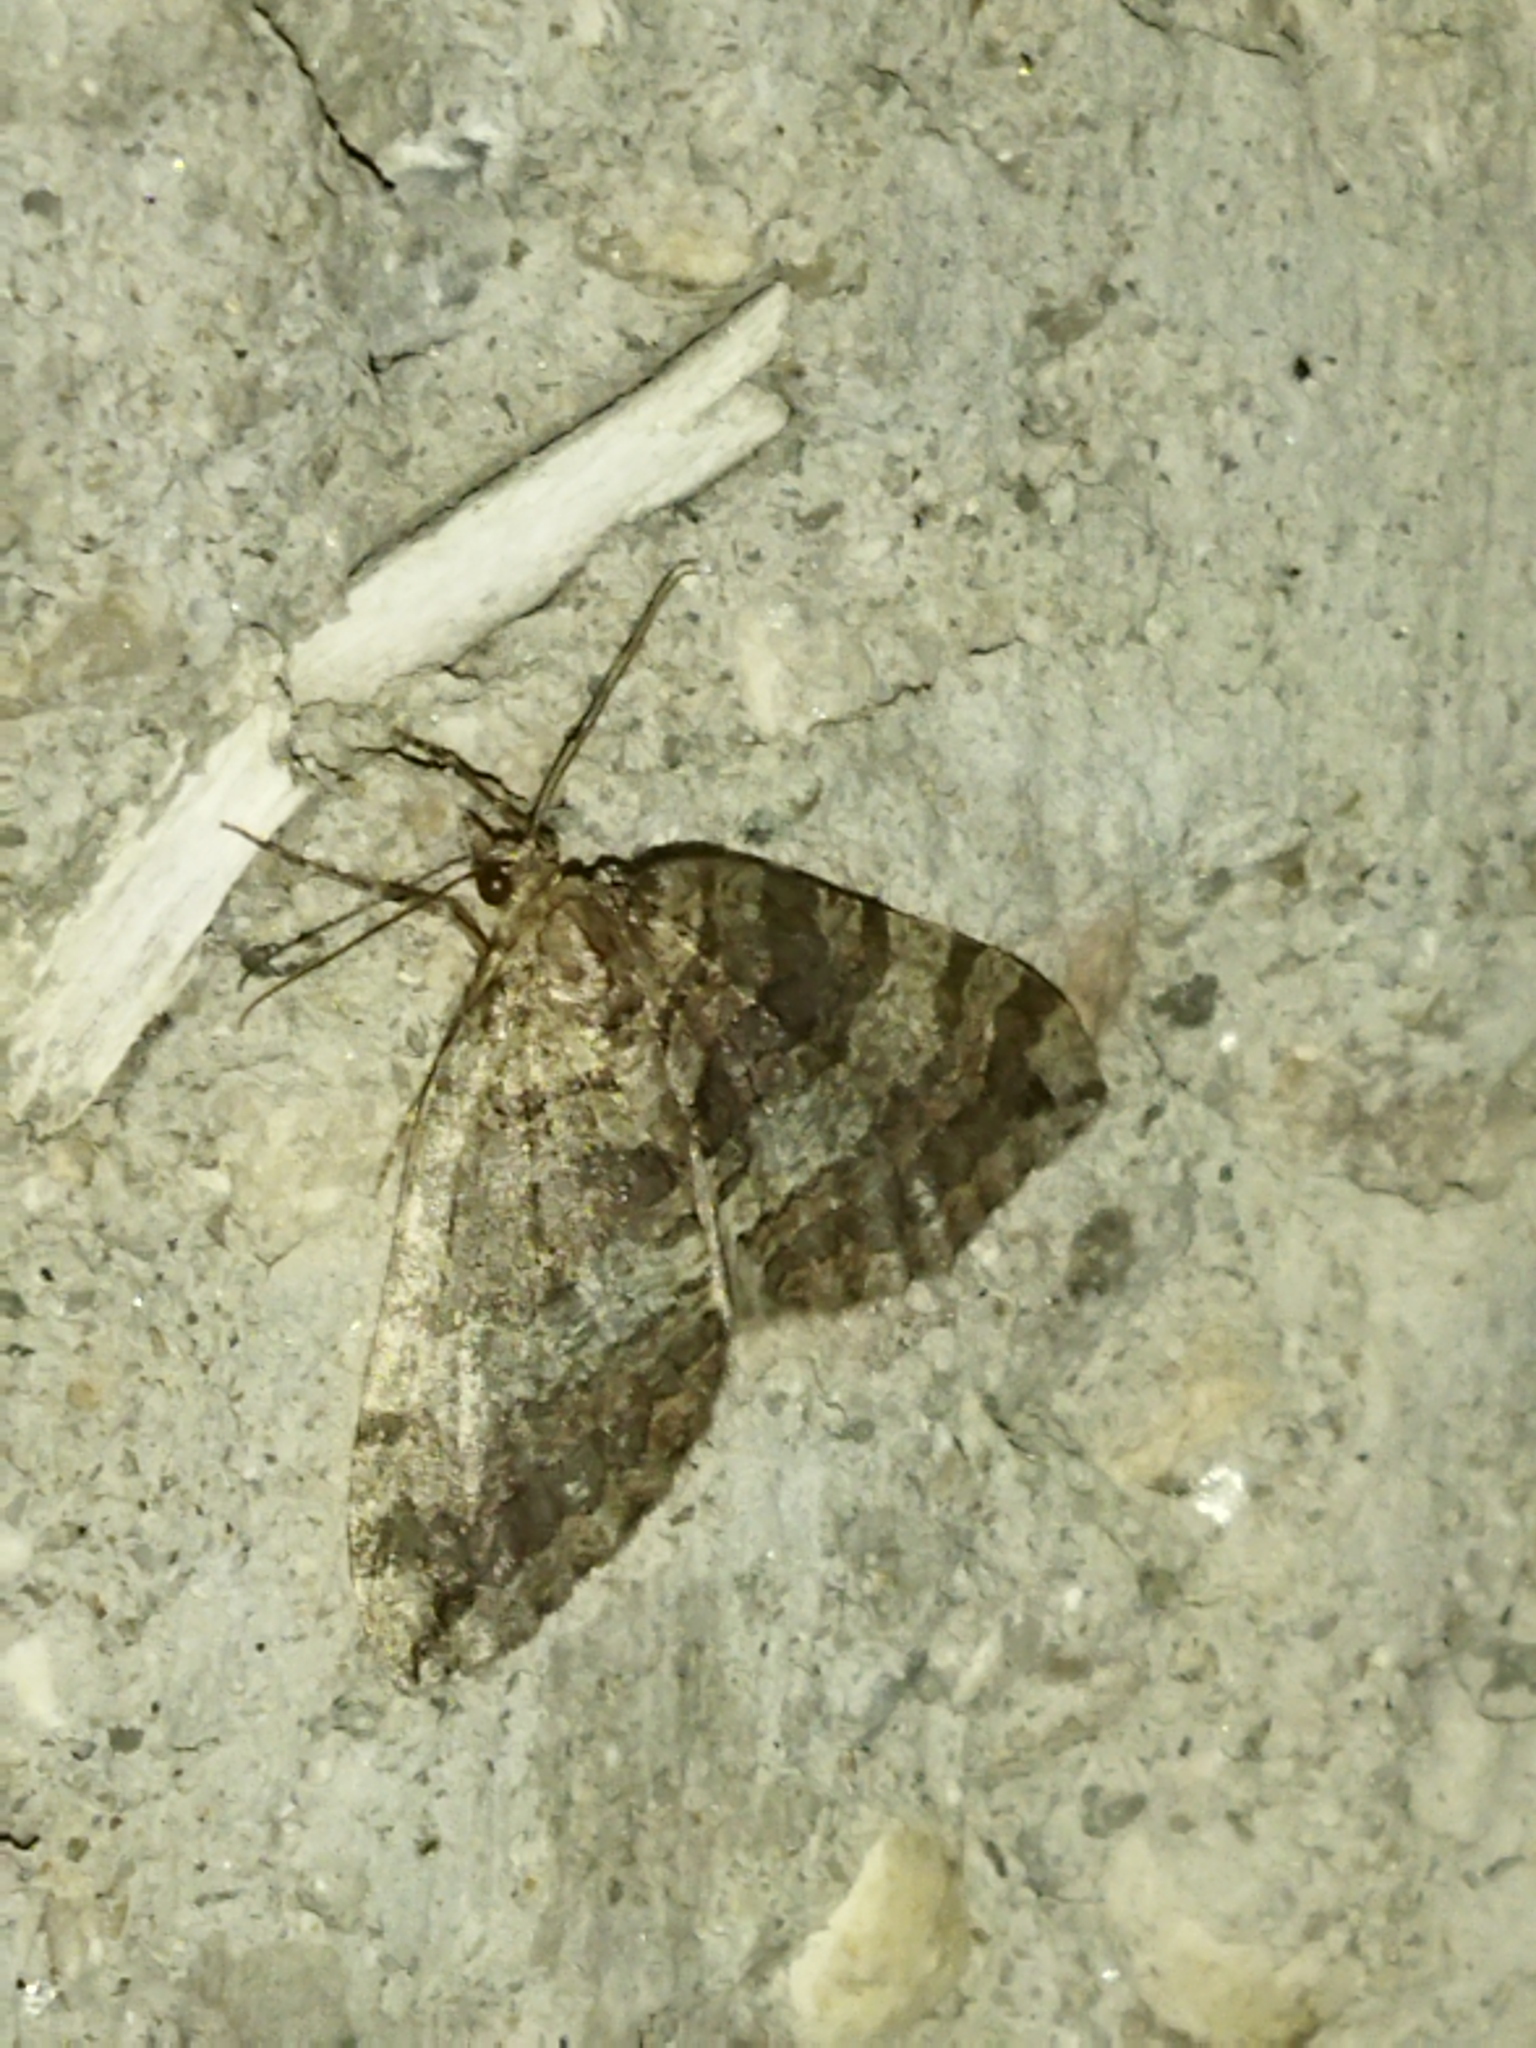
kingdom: Animalia
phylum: Arthropoda
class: Insecta
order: Lepidoptera
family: Geometridae
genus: Hydriomena
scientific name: Hydriomena furcata
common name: July highflyer
